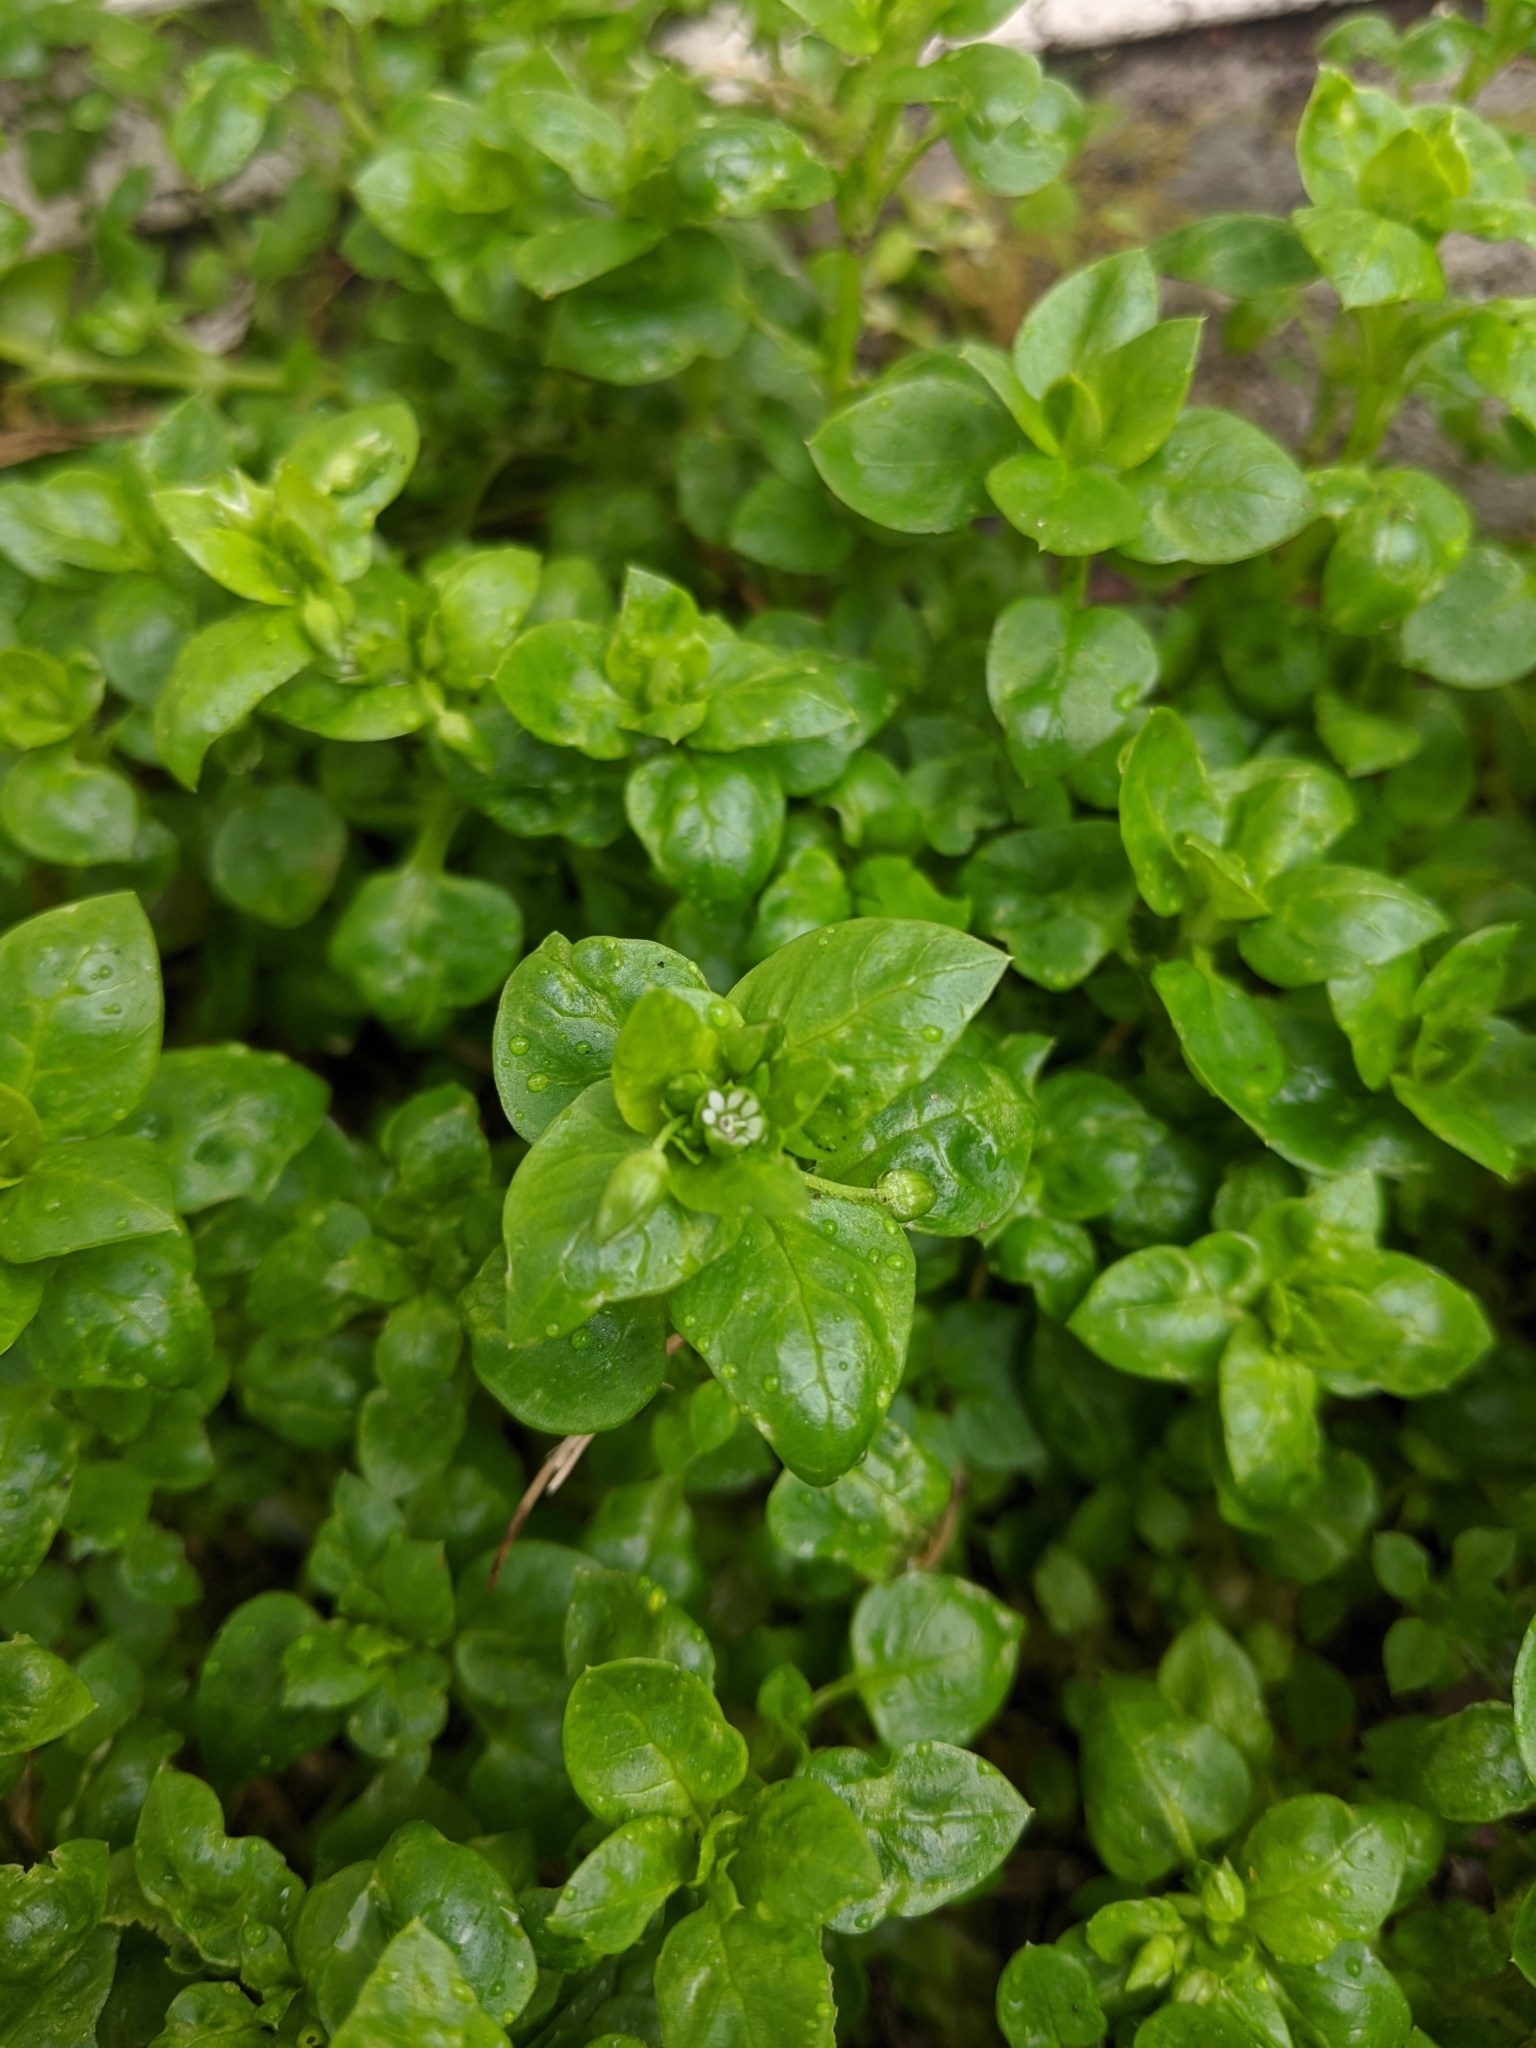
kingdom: Plantae
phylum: Tracheophyta
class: Magnoliopsida
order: Caryophyllales
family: Caryophyllaceae
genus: Stellaria
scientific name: Stellaria media
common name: Common chickweed
